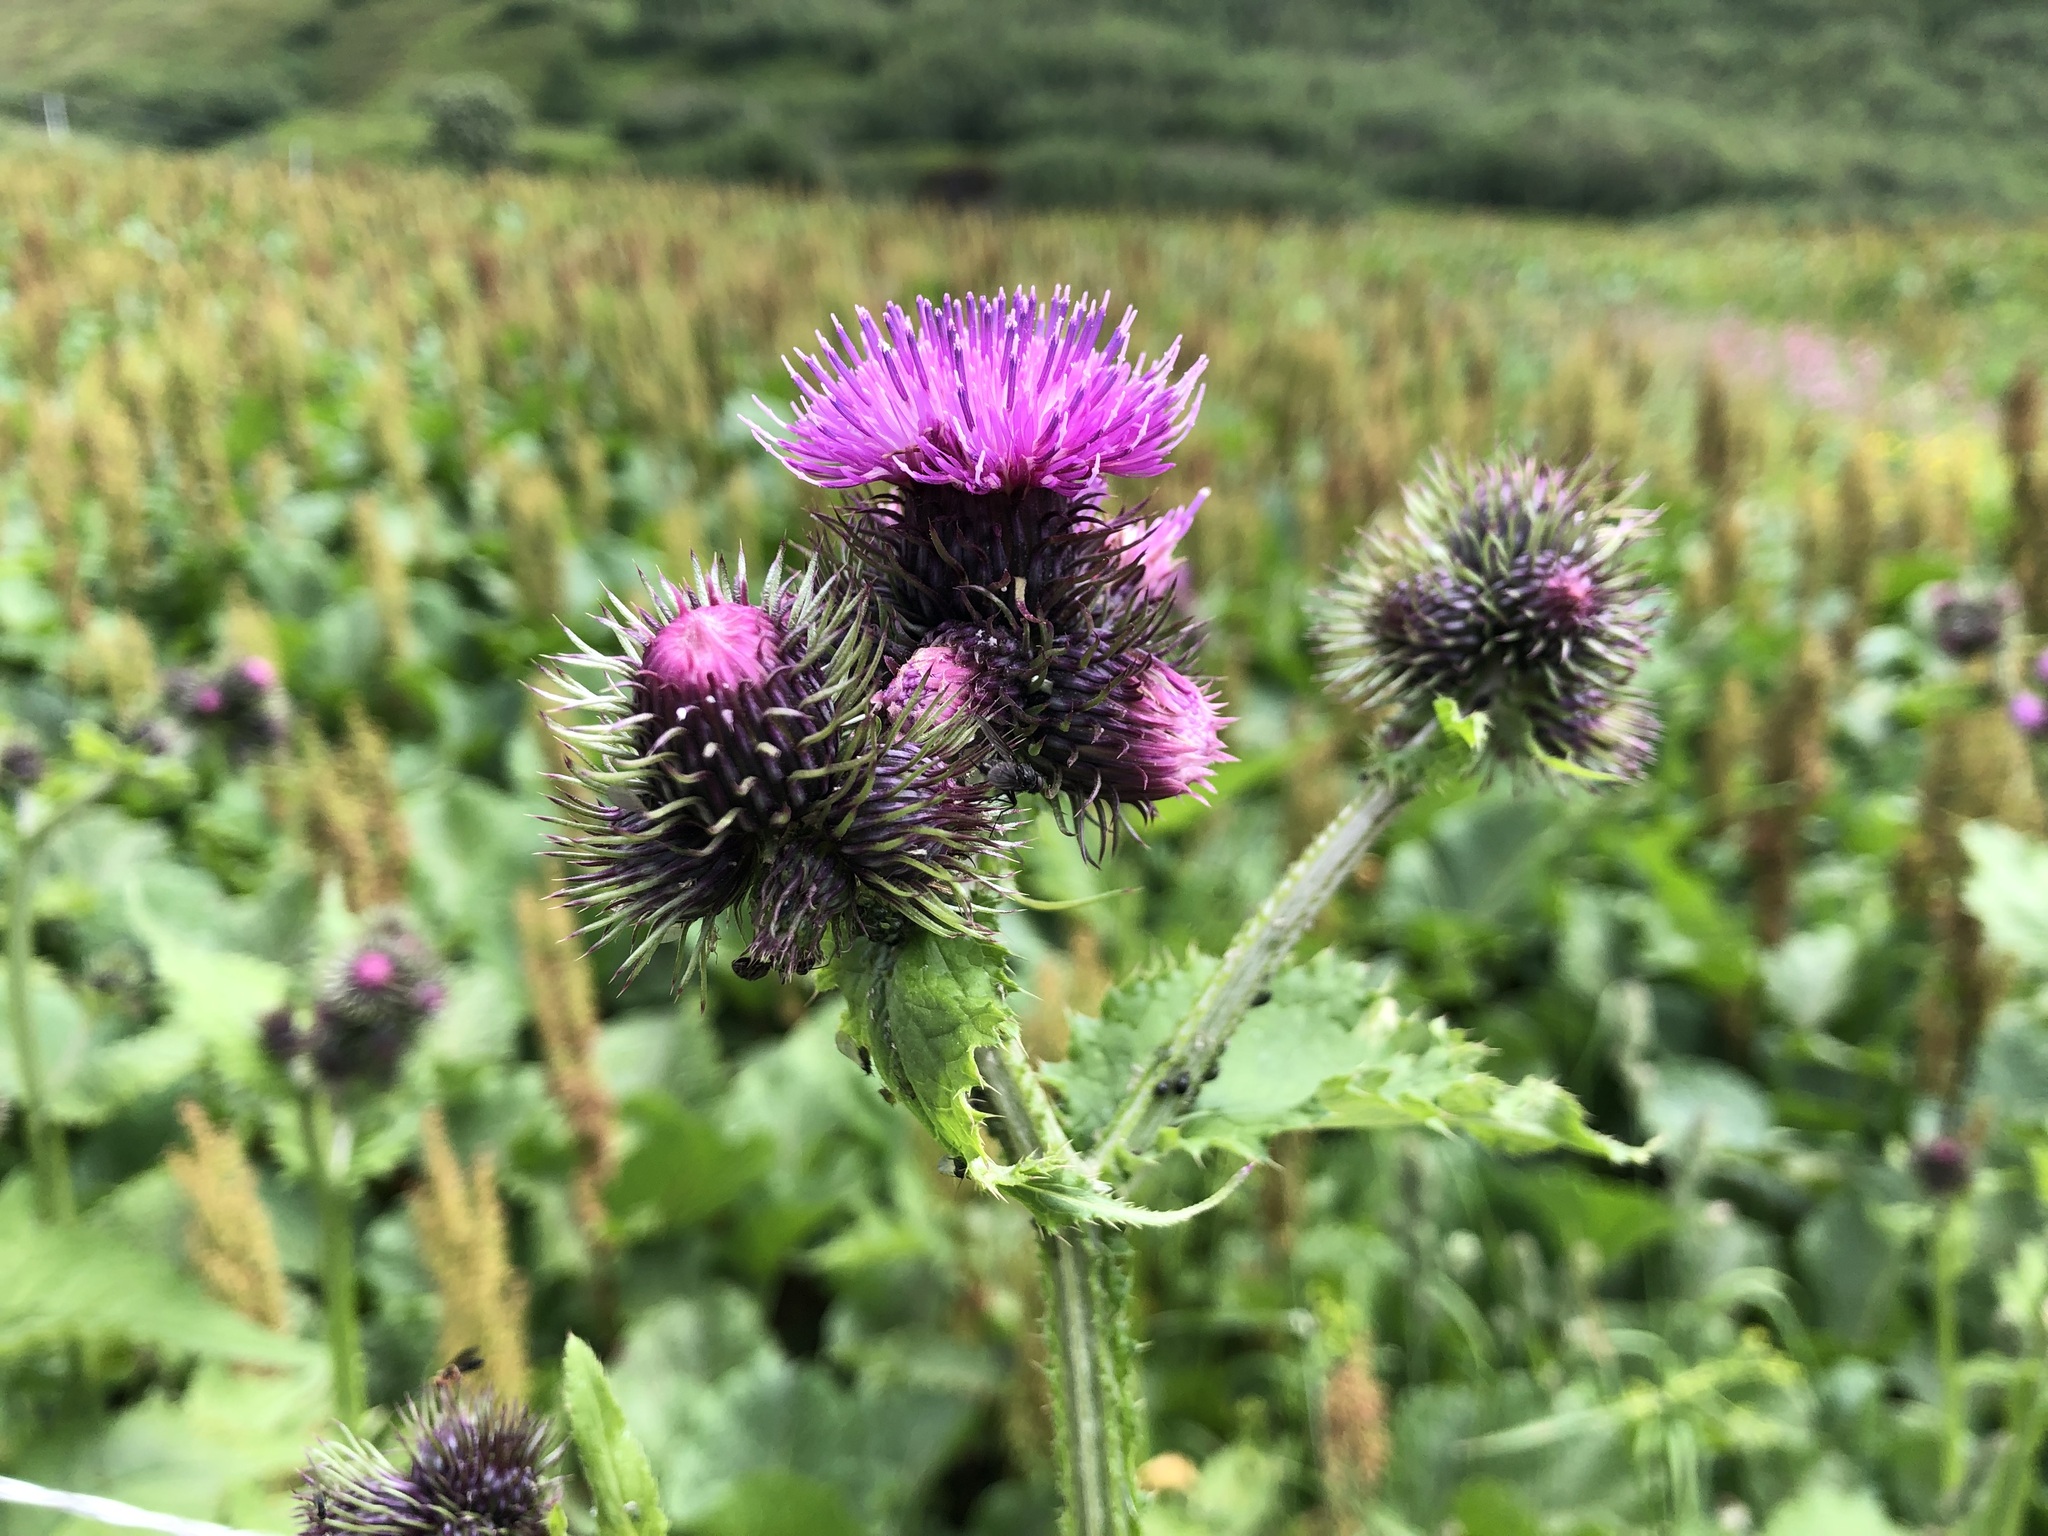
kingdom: Plantae
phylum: Tracheophyta
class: Magnoliopsida
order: Asterales
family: Asteraceae
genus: Carduus
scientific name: Carduus personata
